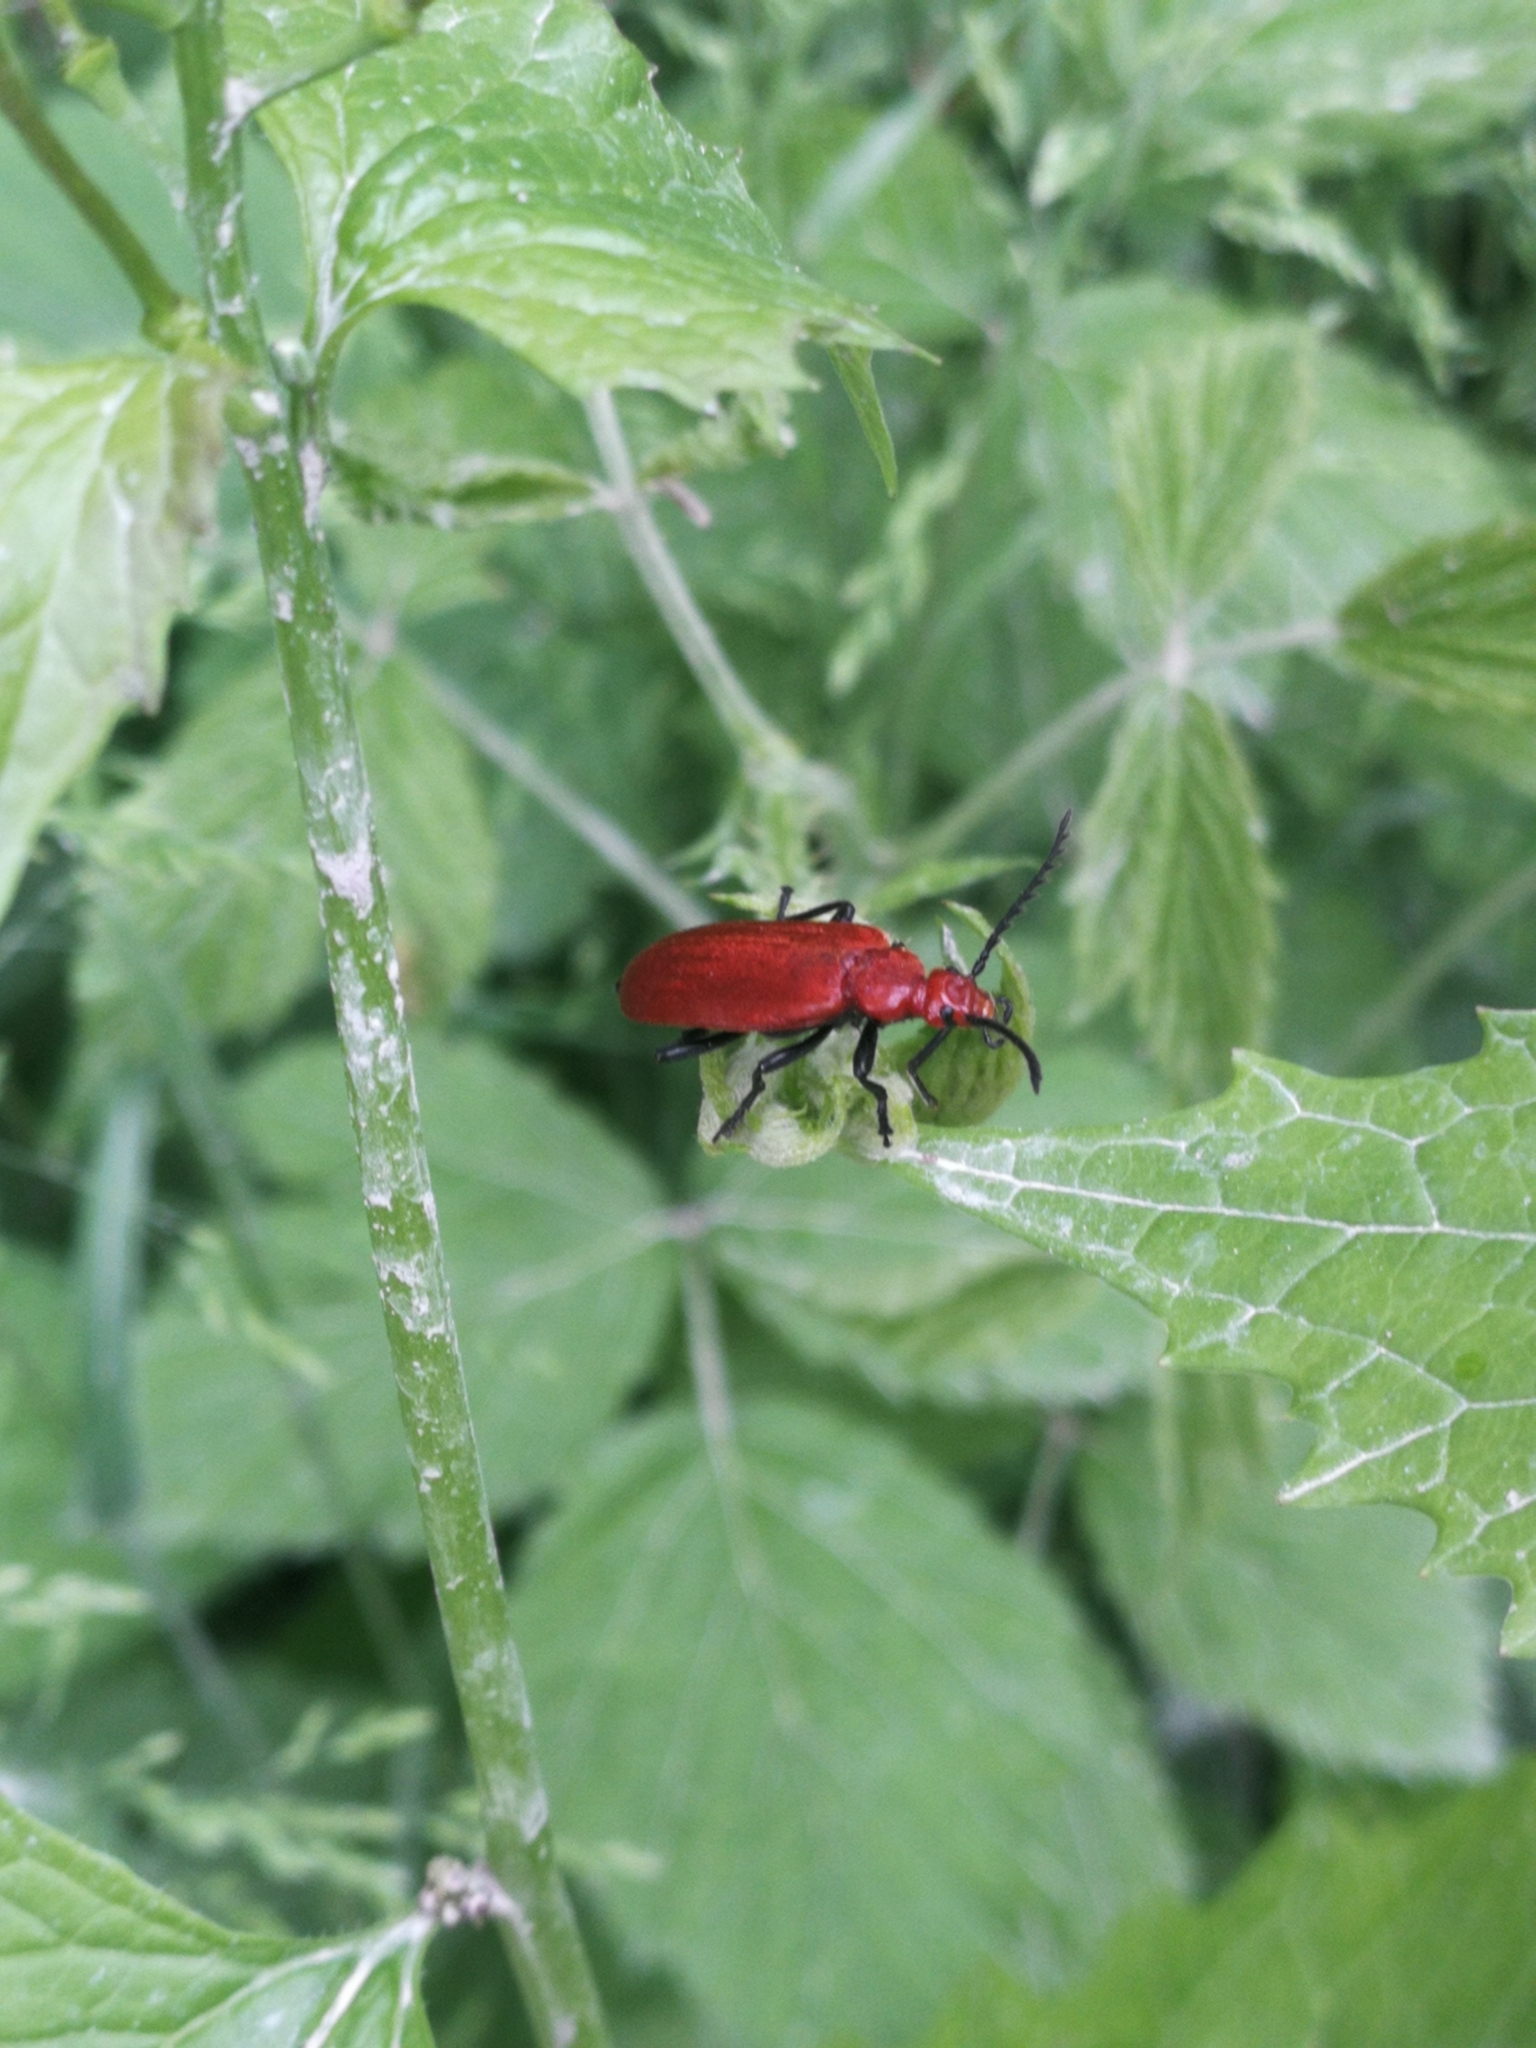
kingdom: Animalia
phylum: Arthropoda
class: Insecta
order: Coleoptera
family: Pyrochroidae
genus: Pyrochroa
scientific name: Pyrochroa serraticornis
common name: Red-headed cardinal beetle
